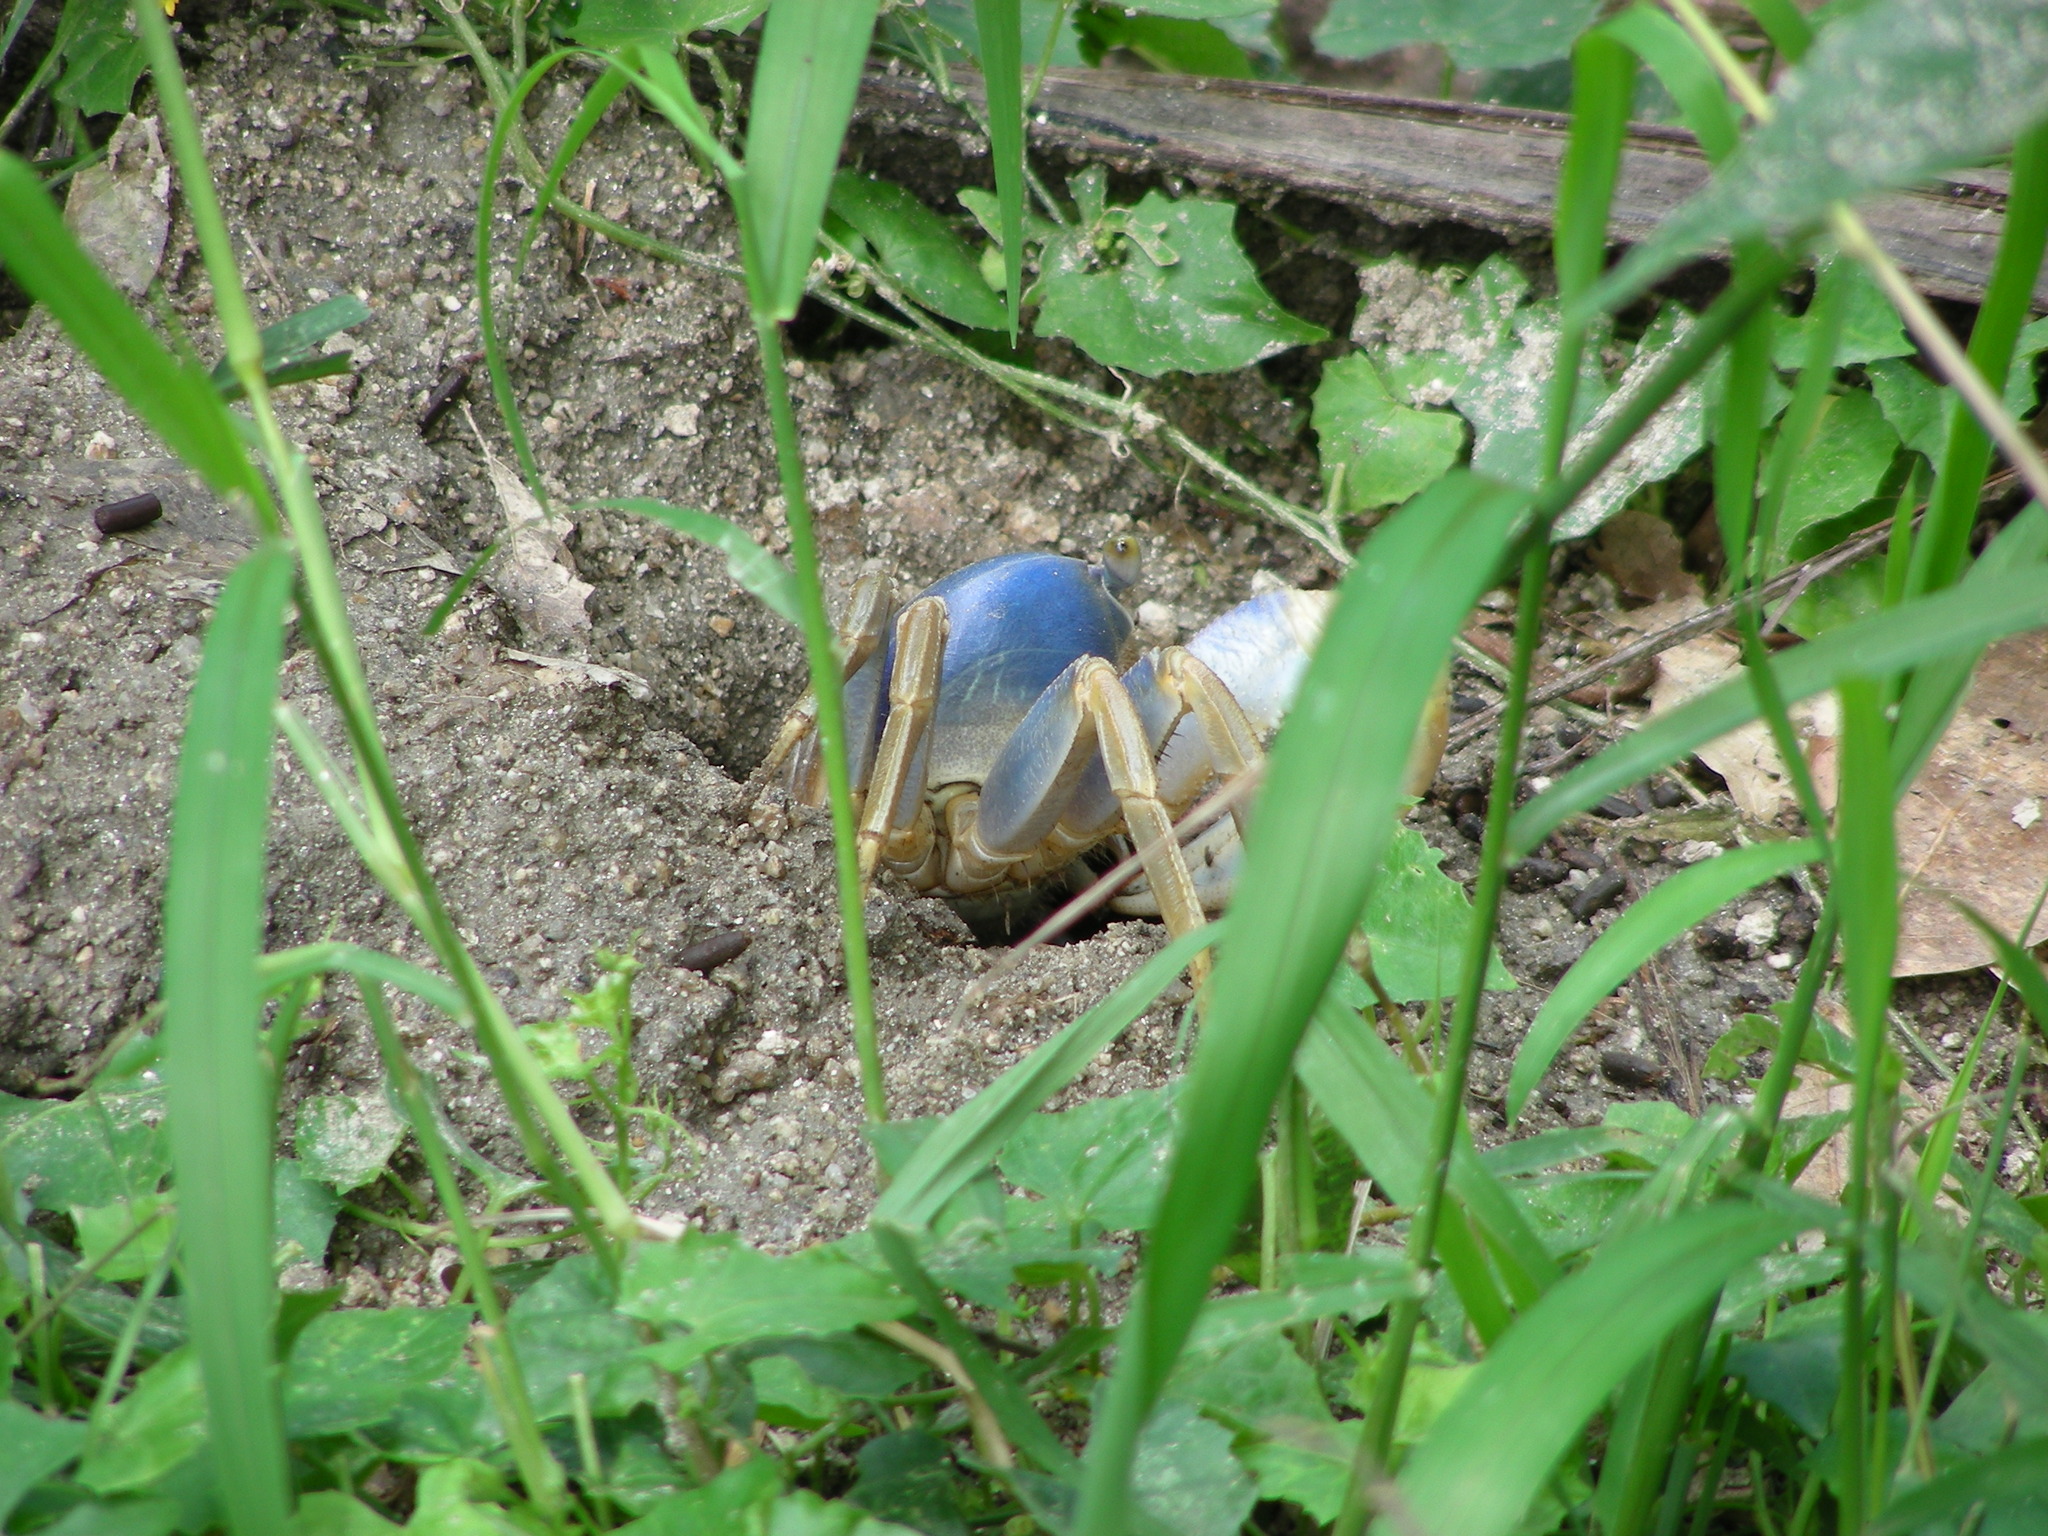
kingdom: Animalia
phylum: Arthropoda
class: Malacostraca
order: Decapoda
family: Gecarcinidae
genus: Cardisoma
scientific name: Cardisoma guanhumi
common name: Great land crab
